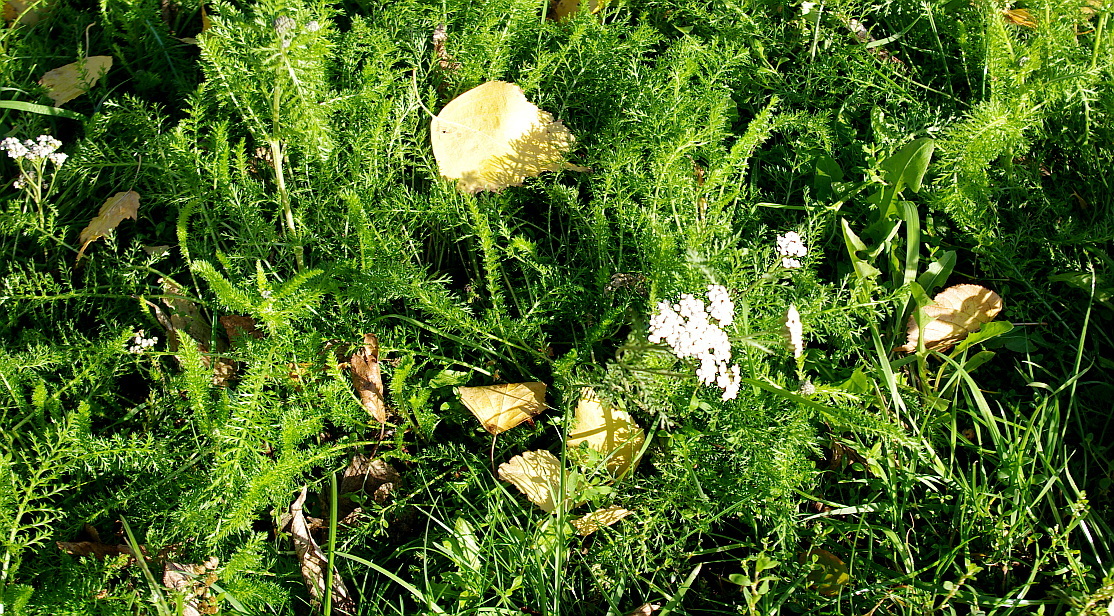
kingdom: Plantae
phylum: Tracheophyta
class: Magnoliopsida
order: Asterales
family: Asteraceae
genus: Achillea
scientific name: Achillea millefolium
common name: Yarrow
